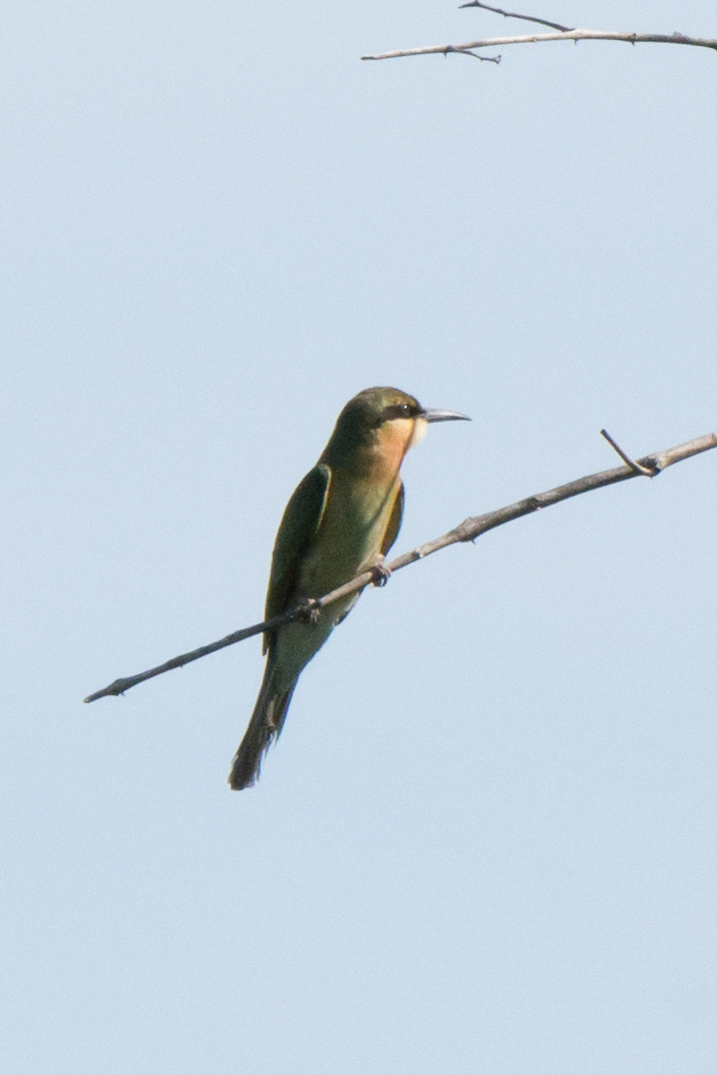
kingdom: Animalia
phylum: Chordata
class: Aves
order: Coraciiformes
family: Meropidae
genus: Merops
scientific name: Merops philippinus
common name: Blue-tailed bee-eater
